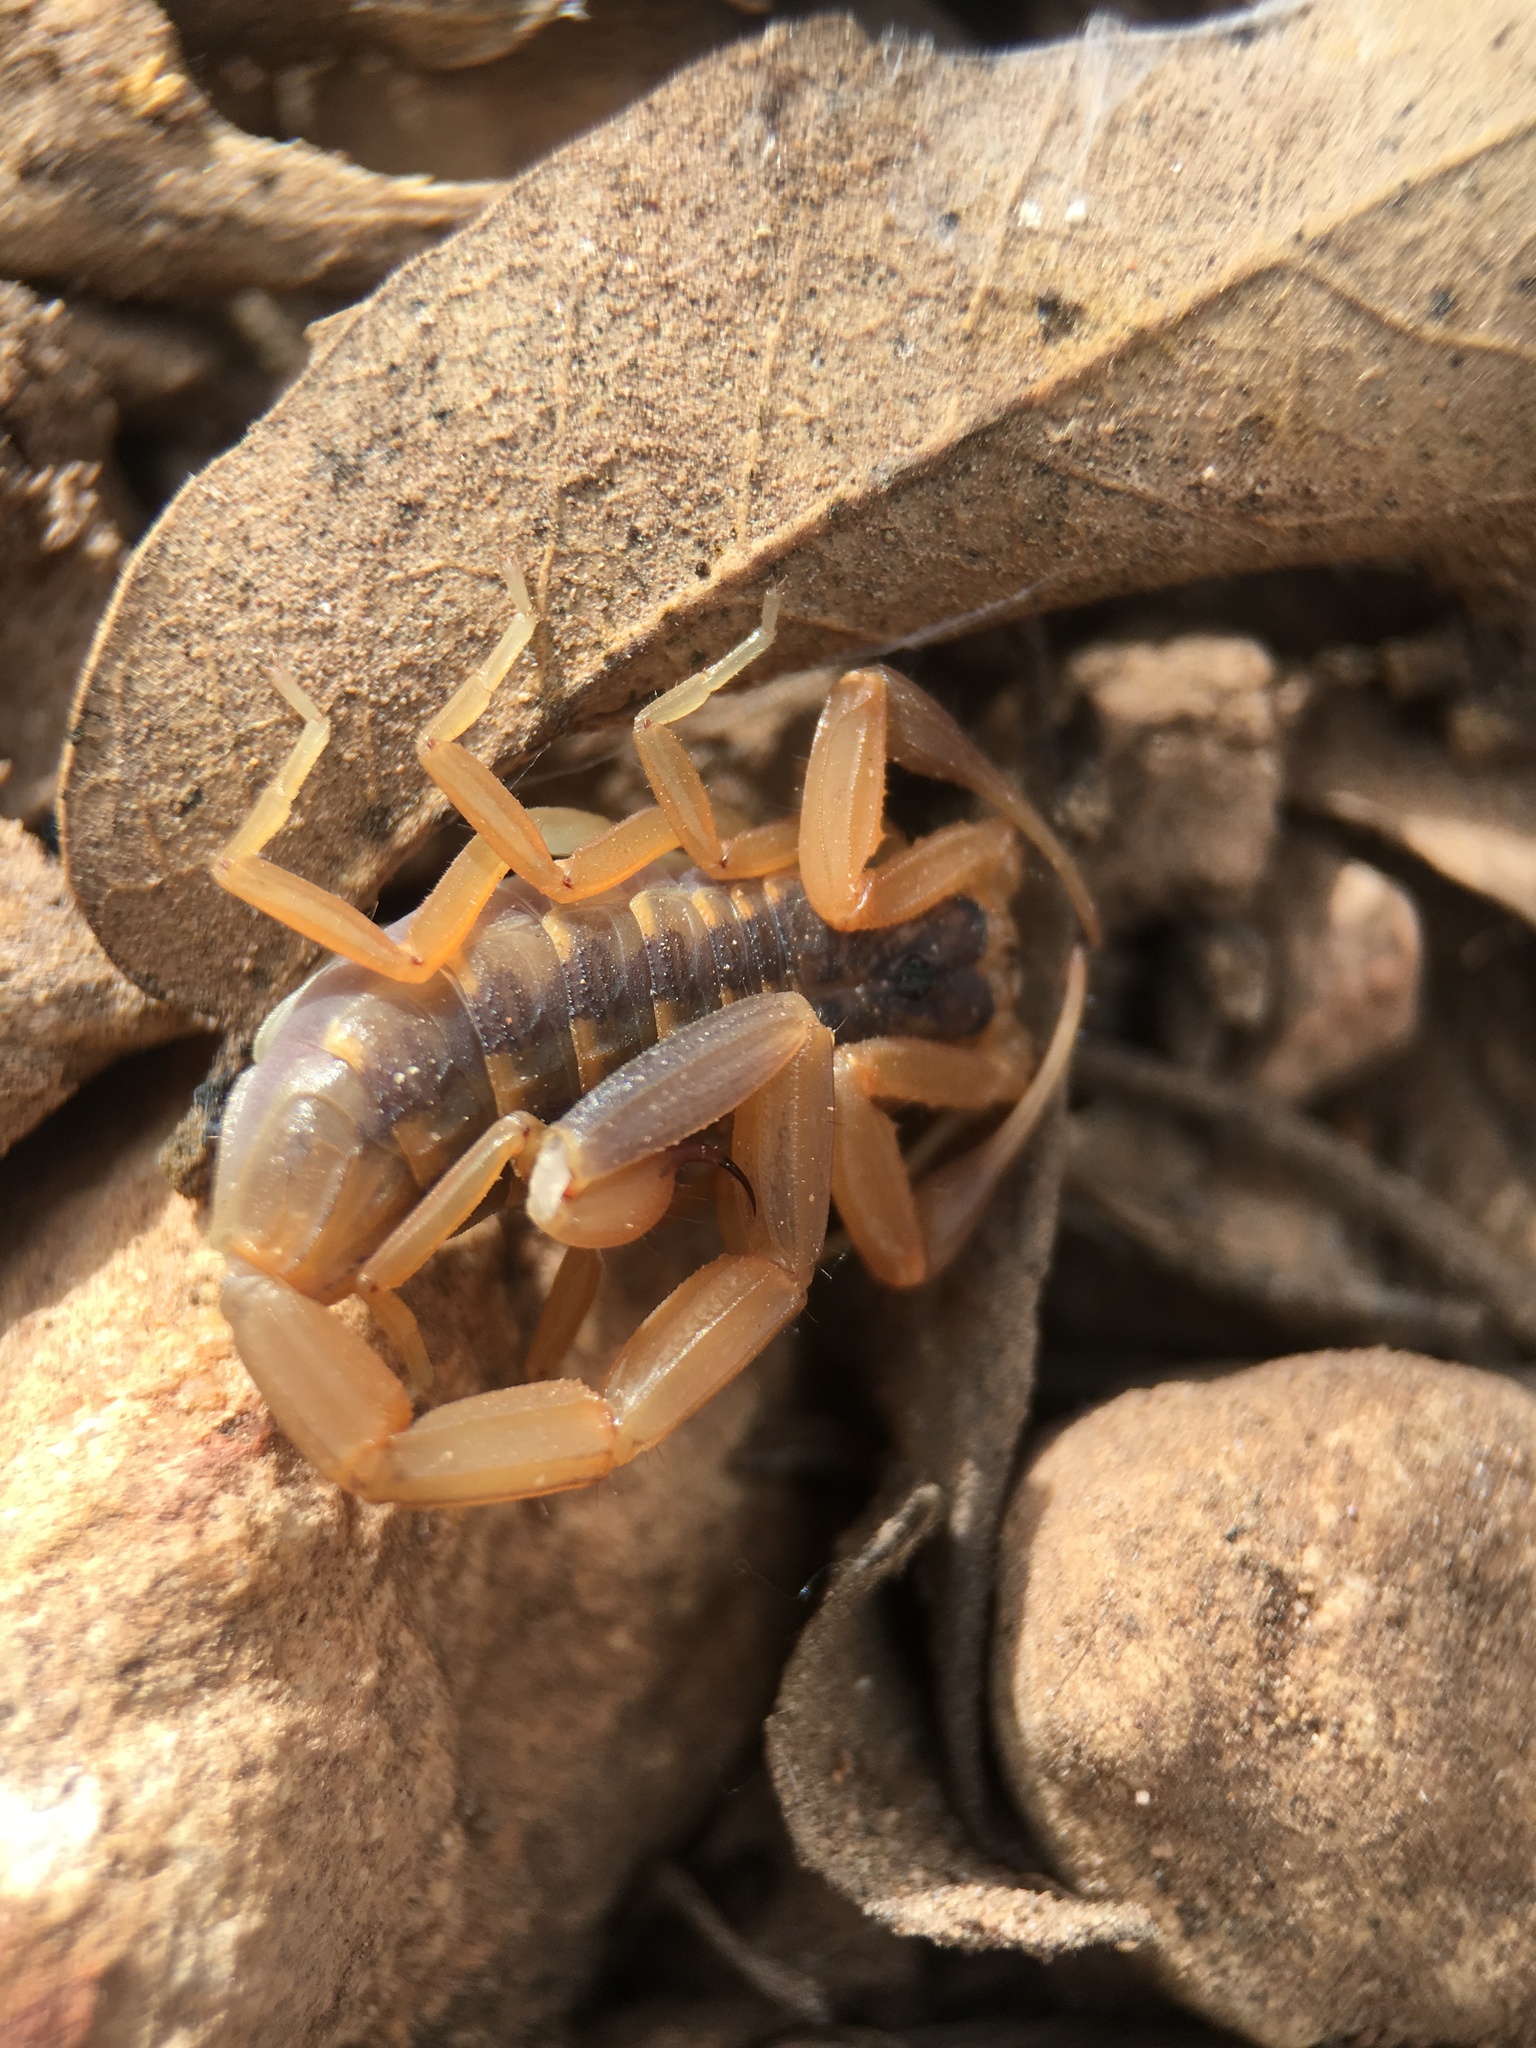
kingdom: Animalia
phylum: Arthropoda
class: Arachnida
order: Scorpiones
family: Buthidae
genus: Centruroides
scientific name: Centruroides vittatus
